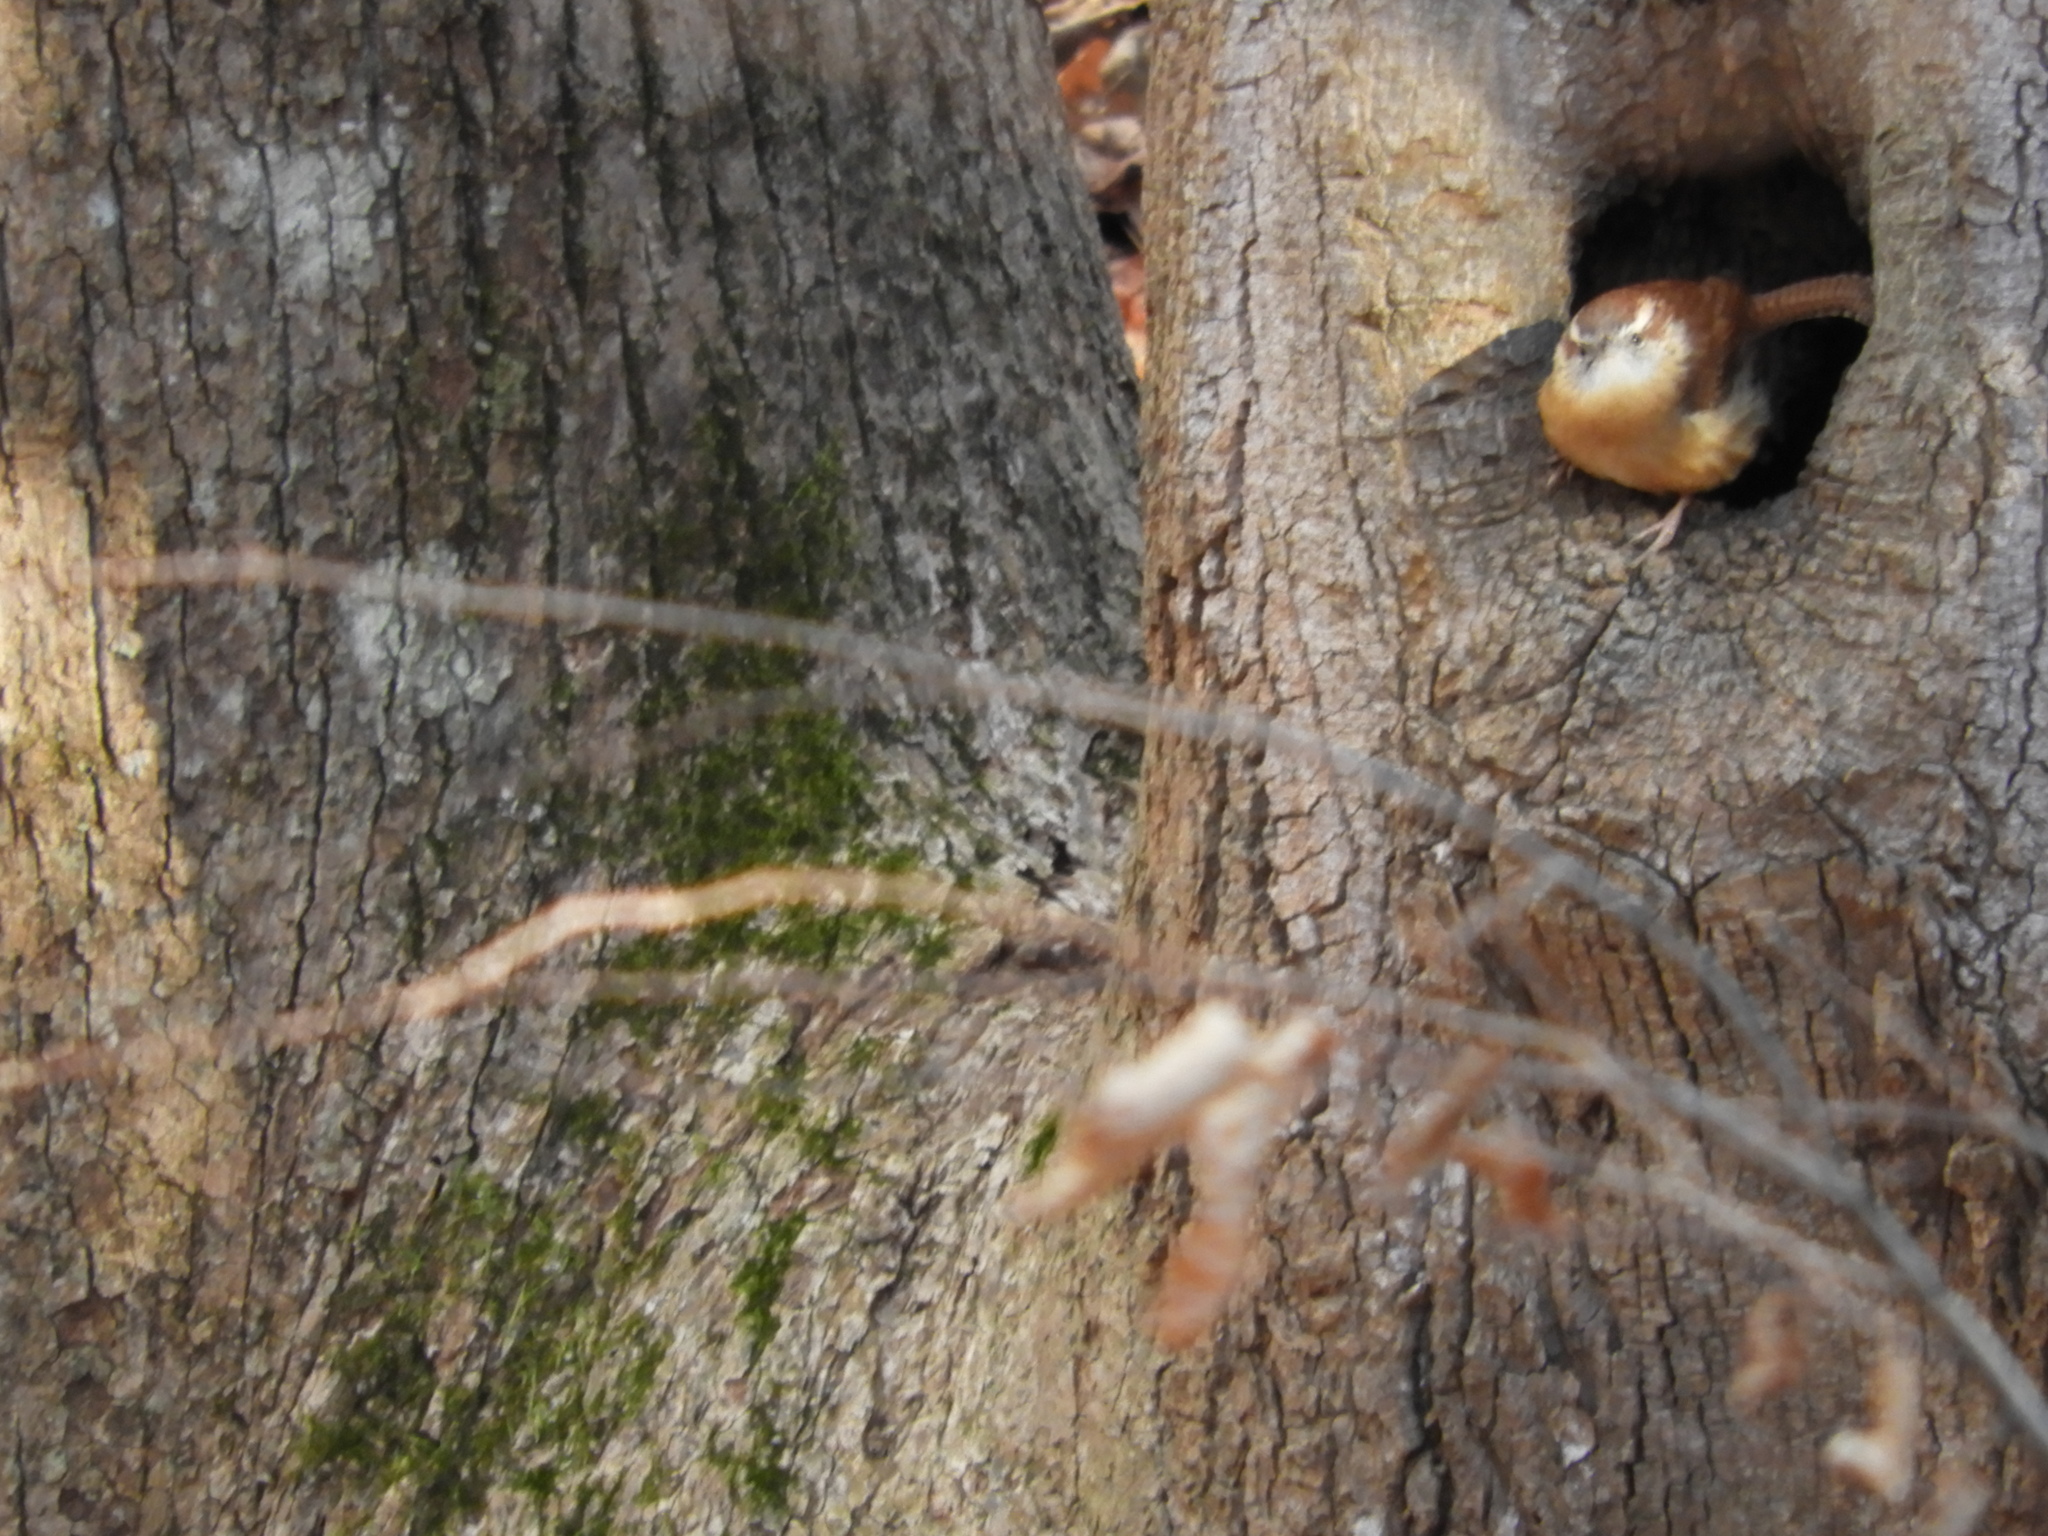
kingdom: Animalia
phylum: Chordata
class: Aves
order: Passeriformes
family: Troglodytidae
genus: Thryothorus
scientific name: Thryothorus ludovicianus
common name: Carolina wren
